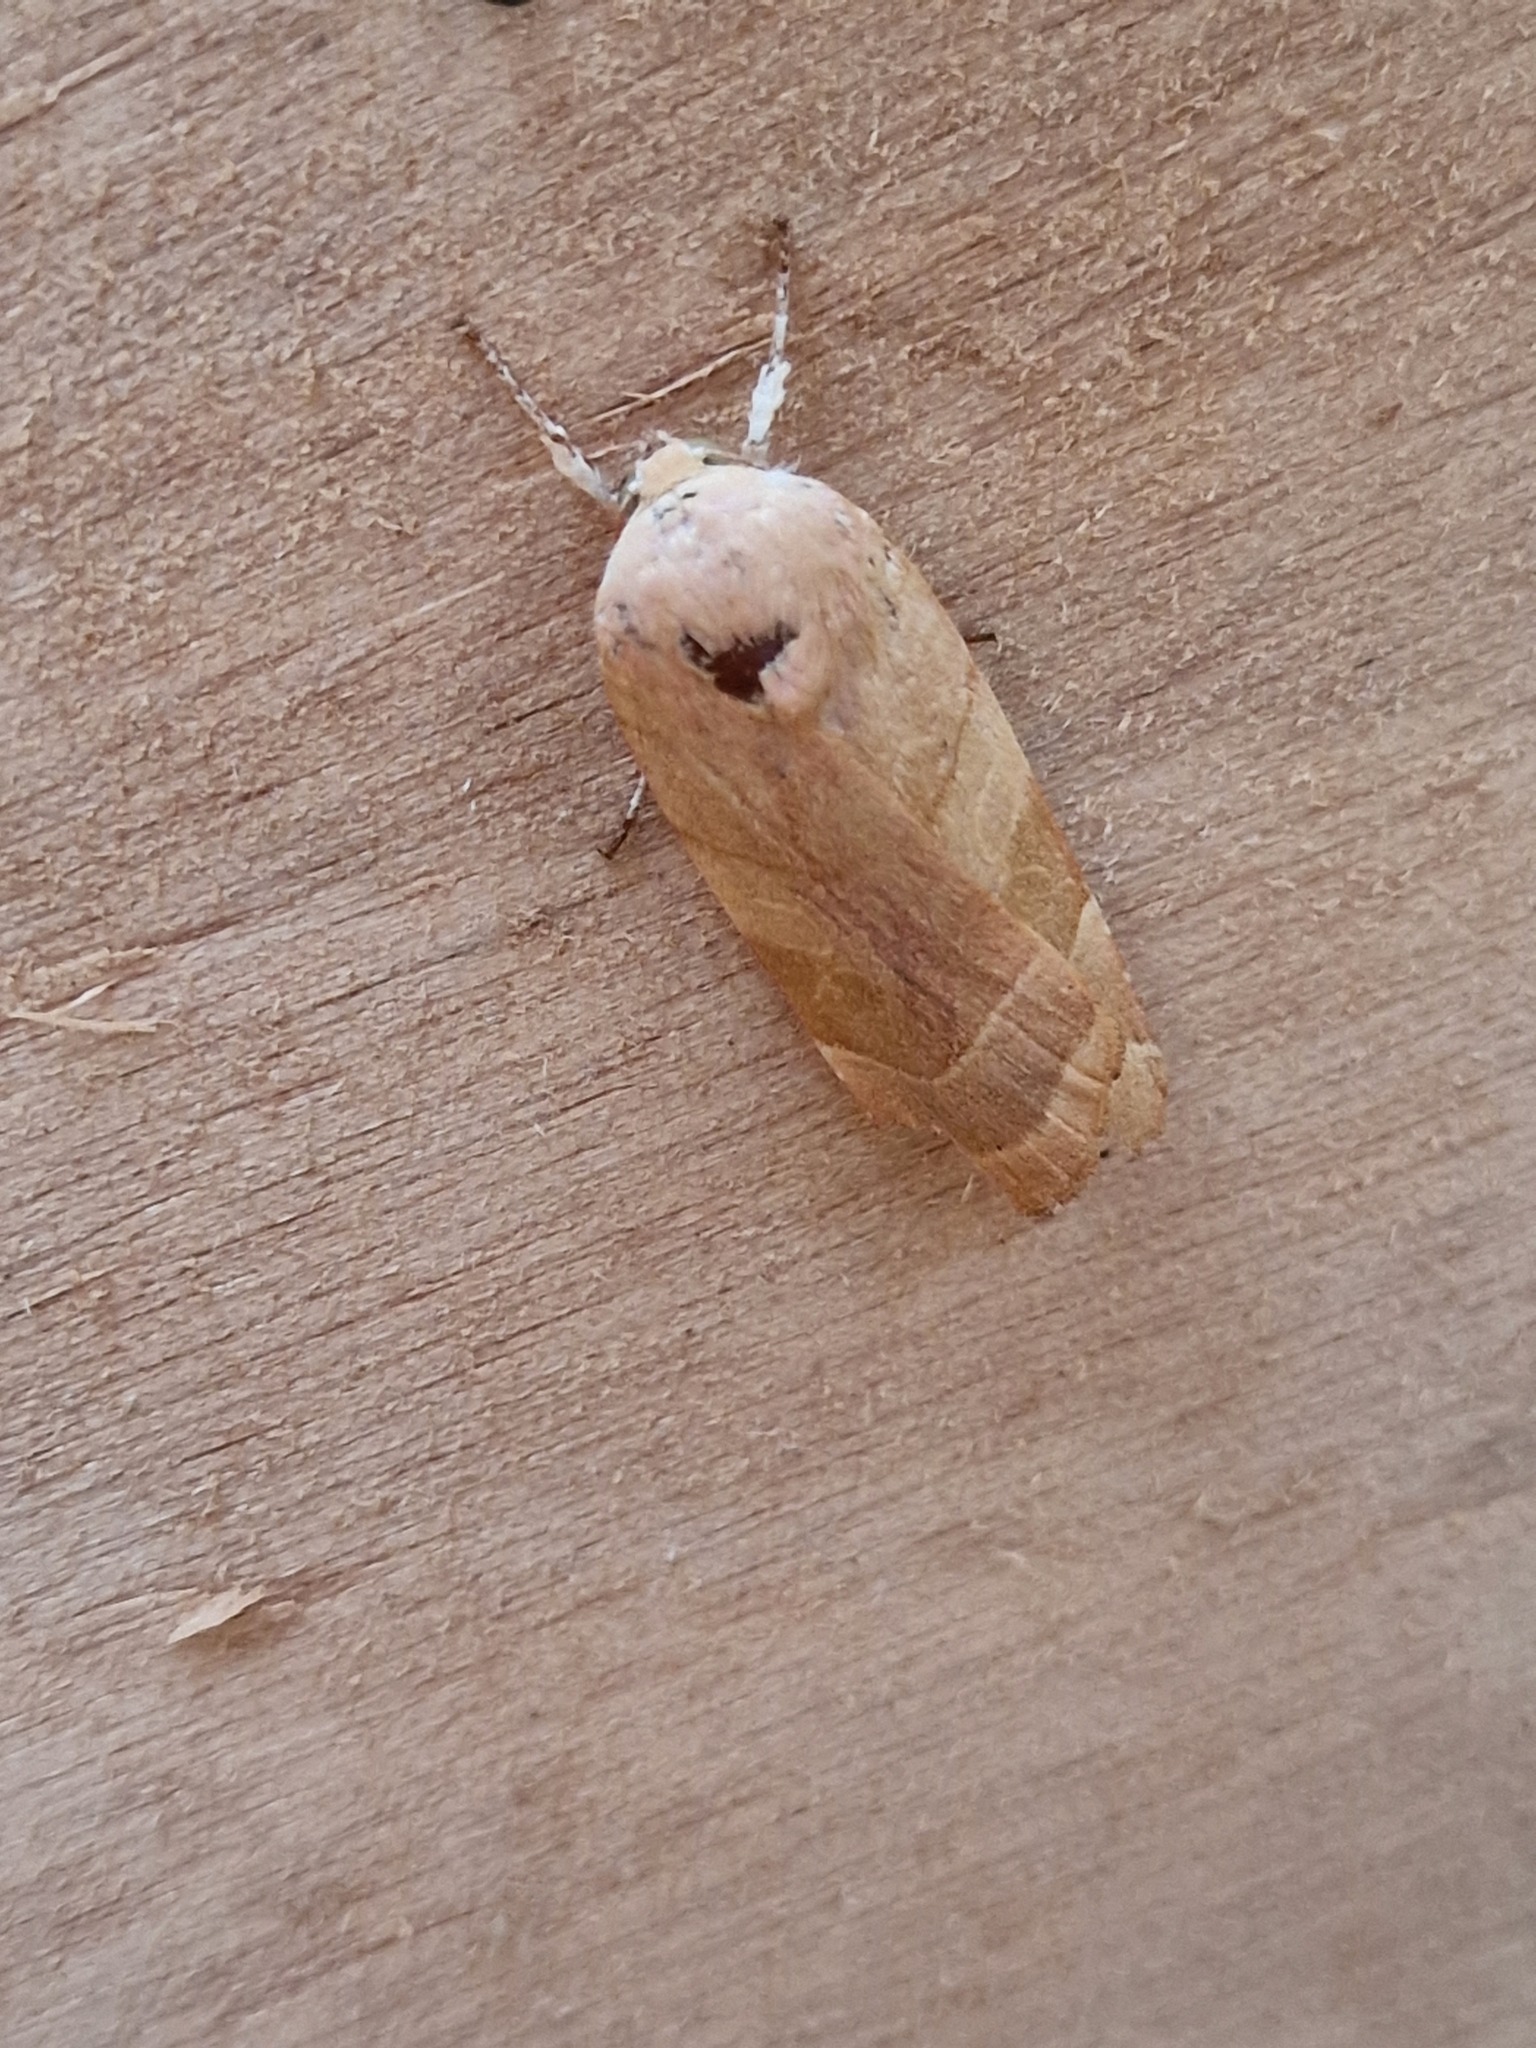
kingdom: Animalia
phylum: Arthropoda
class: Insecta
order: Lepidoptera
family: Noctuidae
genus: Noctua
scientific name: Noctua fimbriata
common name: Broad-bordered yellow underwing
